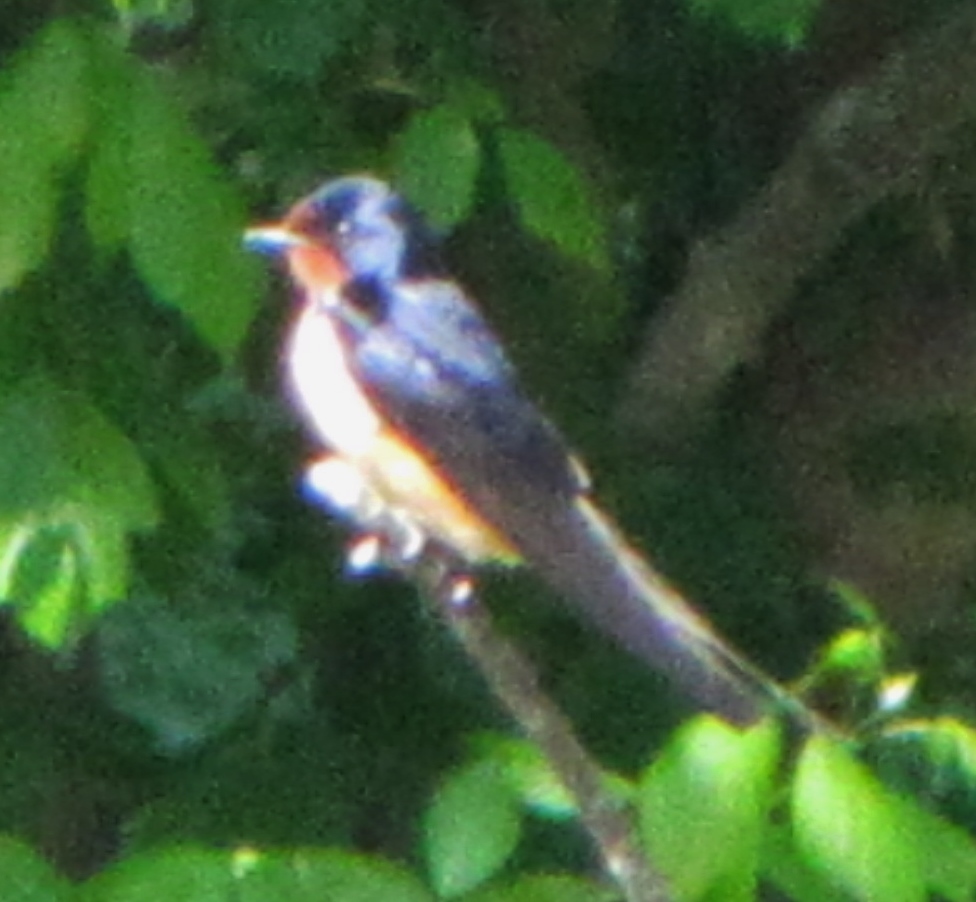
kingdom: Animalia
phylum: Chordata
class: Aves
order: Passeriformes
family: Hirundinidae
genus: Hirundo
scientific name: Hirundo rustica
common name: Barn swallow
